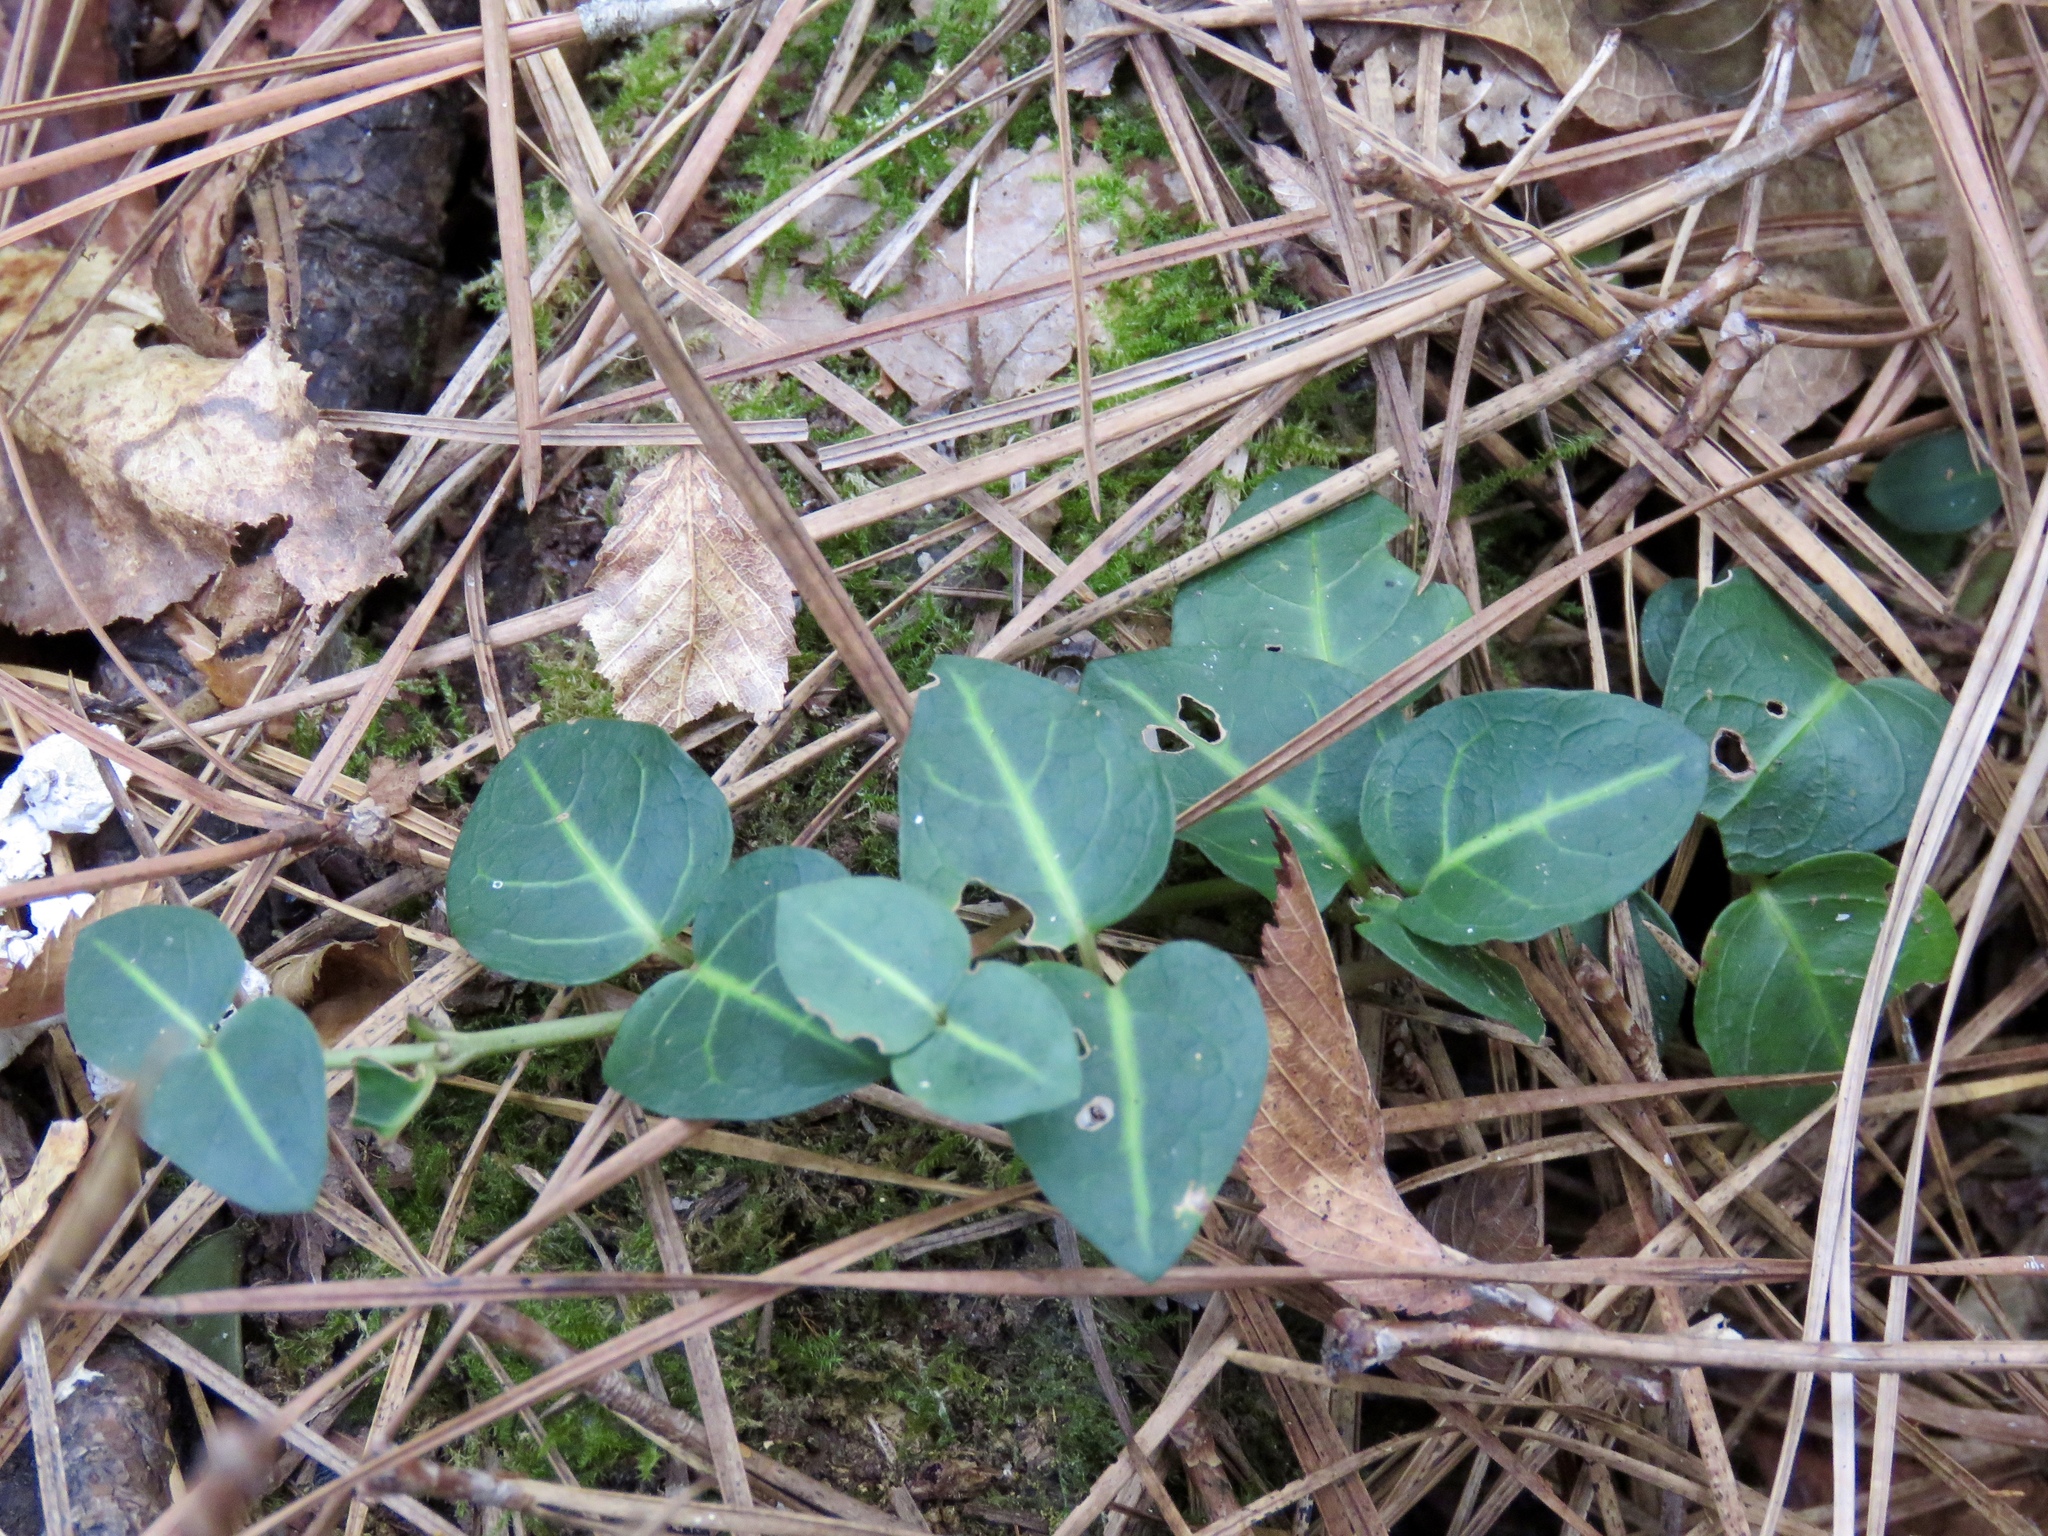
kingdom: Plantae
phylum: Tracheophyta
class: Magnoliopsida
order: Gentianales
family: Rubiaceae
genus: Mitchella
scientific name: Mitchella repens
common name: Partridge-berry
